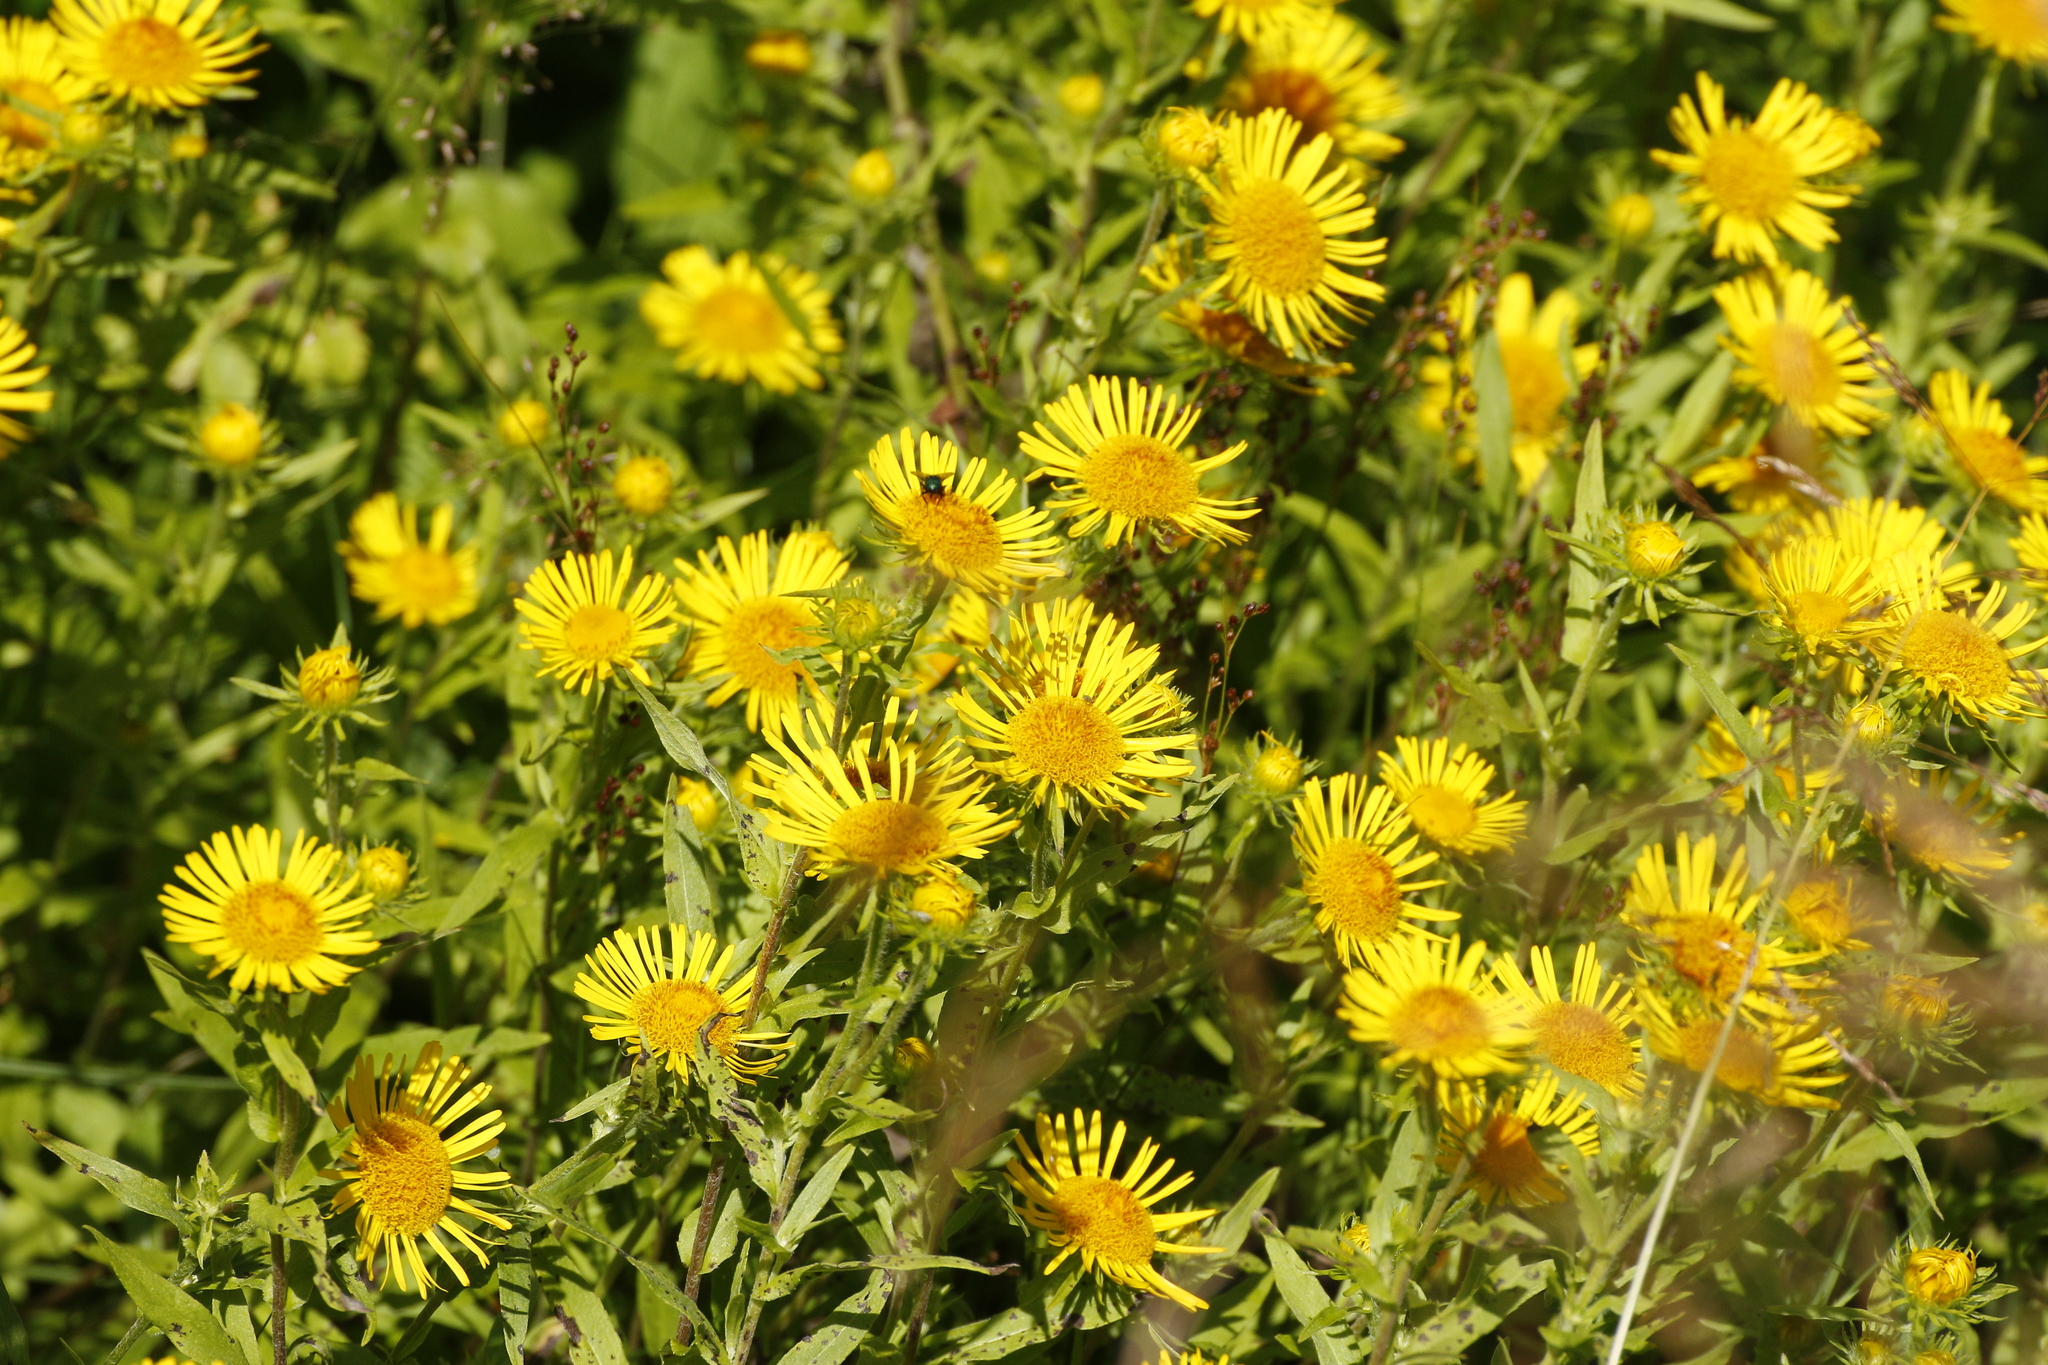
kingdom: Plantae
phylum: Tracheophyta
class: Magnoliopsida
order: Asterales
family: Asteraceae
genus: Pentanema
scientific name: Pentanema britannicum
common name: British elecampane
